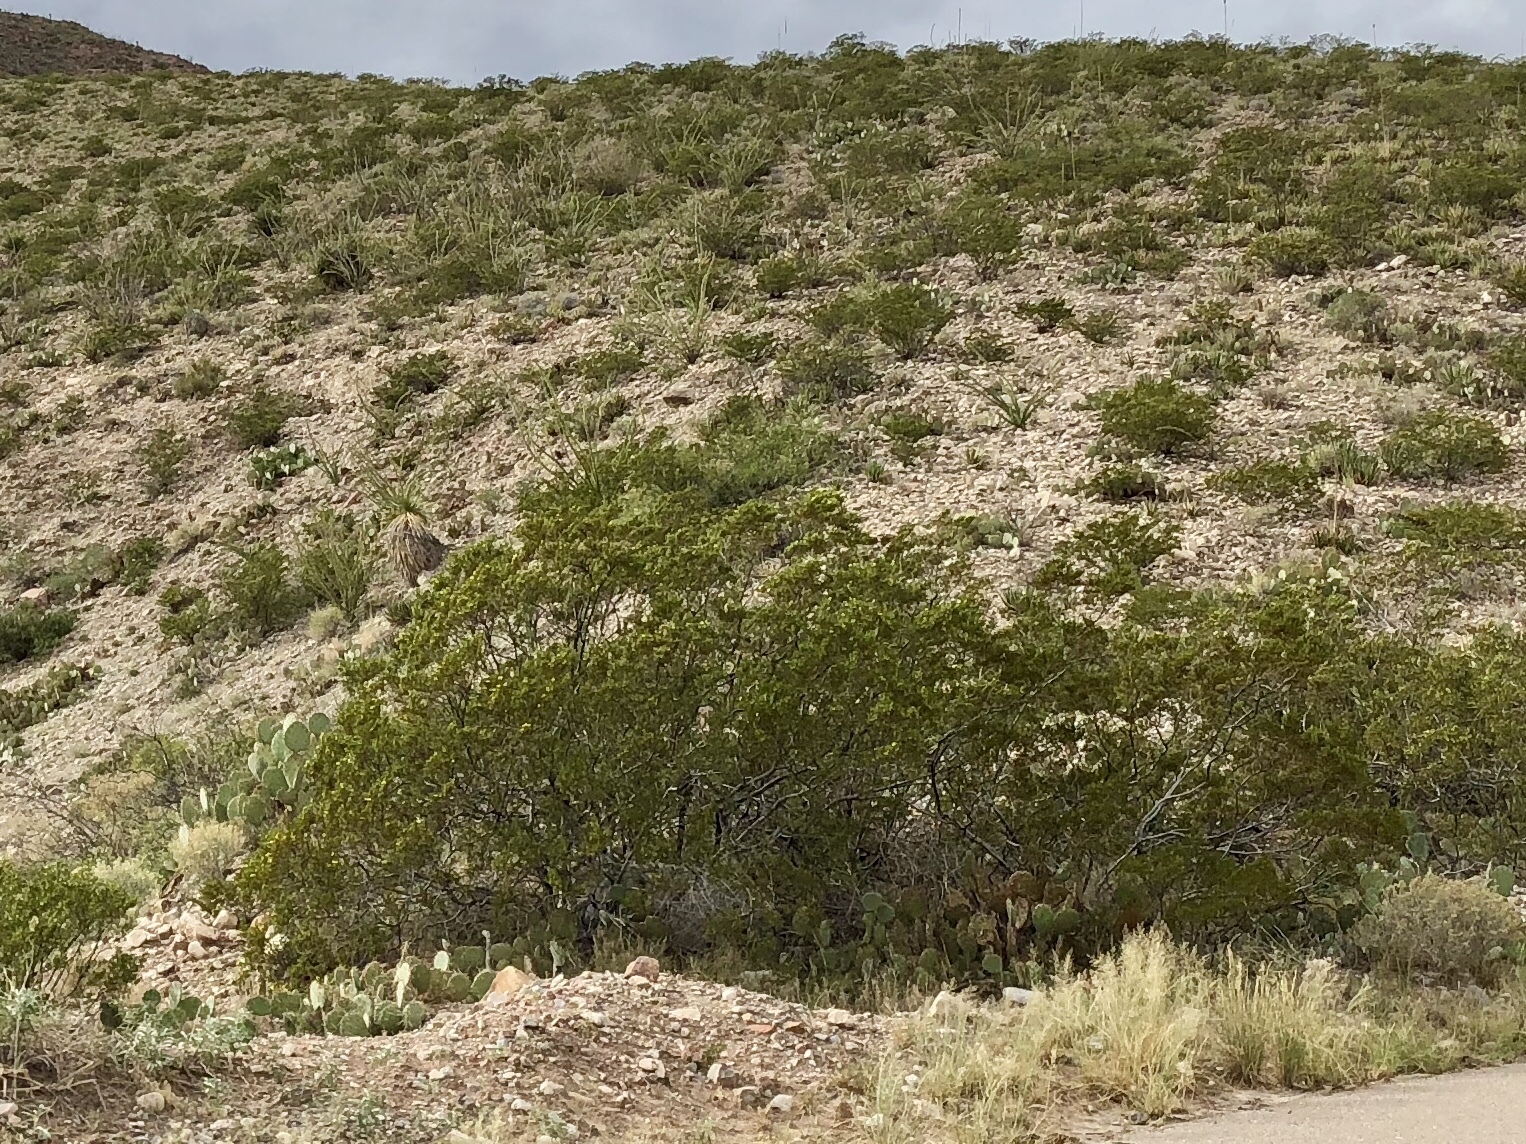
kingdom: Plantae
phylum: Tracheophyta
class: Magnoliopsida
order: Zygophyllales
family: Zygophyllaceae
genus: Larrea
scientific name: Larrea tridentata
